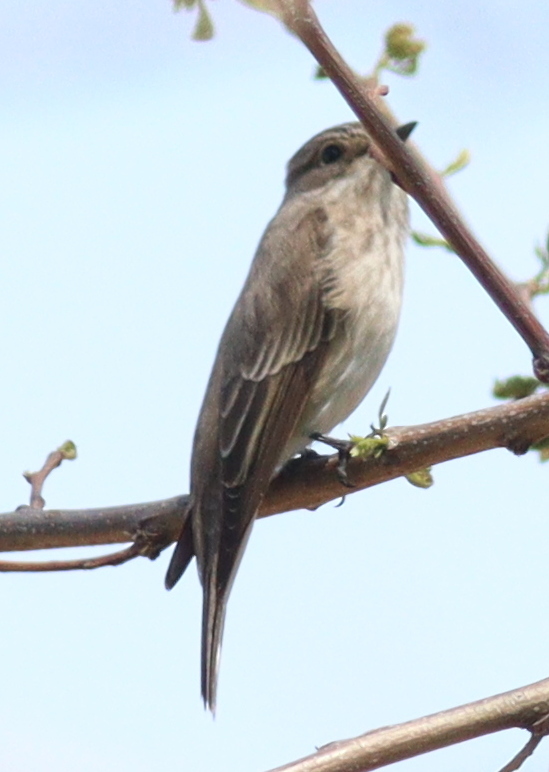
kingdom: Animalia
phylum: Chordata
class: Aves
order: Passeriformes
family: Muscicapidae
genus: Muscicapa
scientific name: Muscicapa striata
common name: Spotted flycatcher
